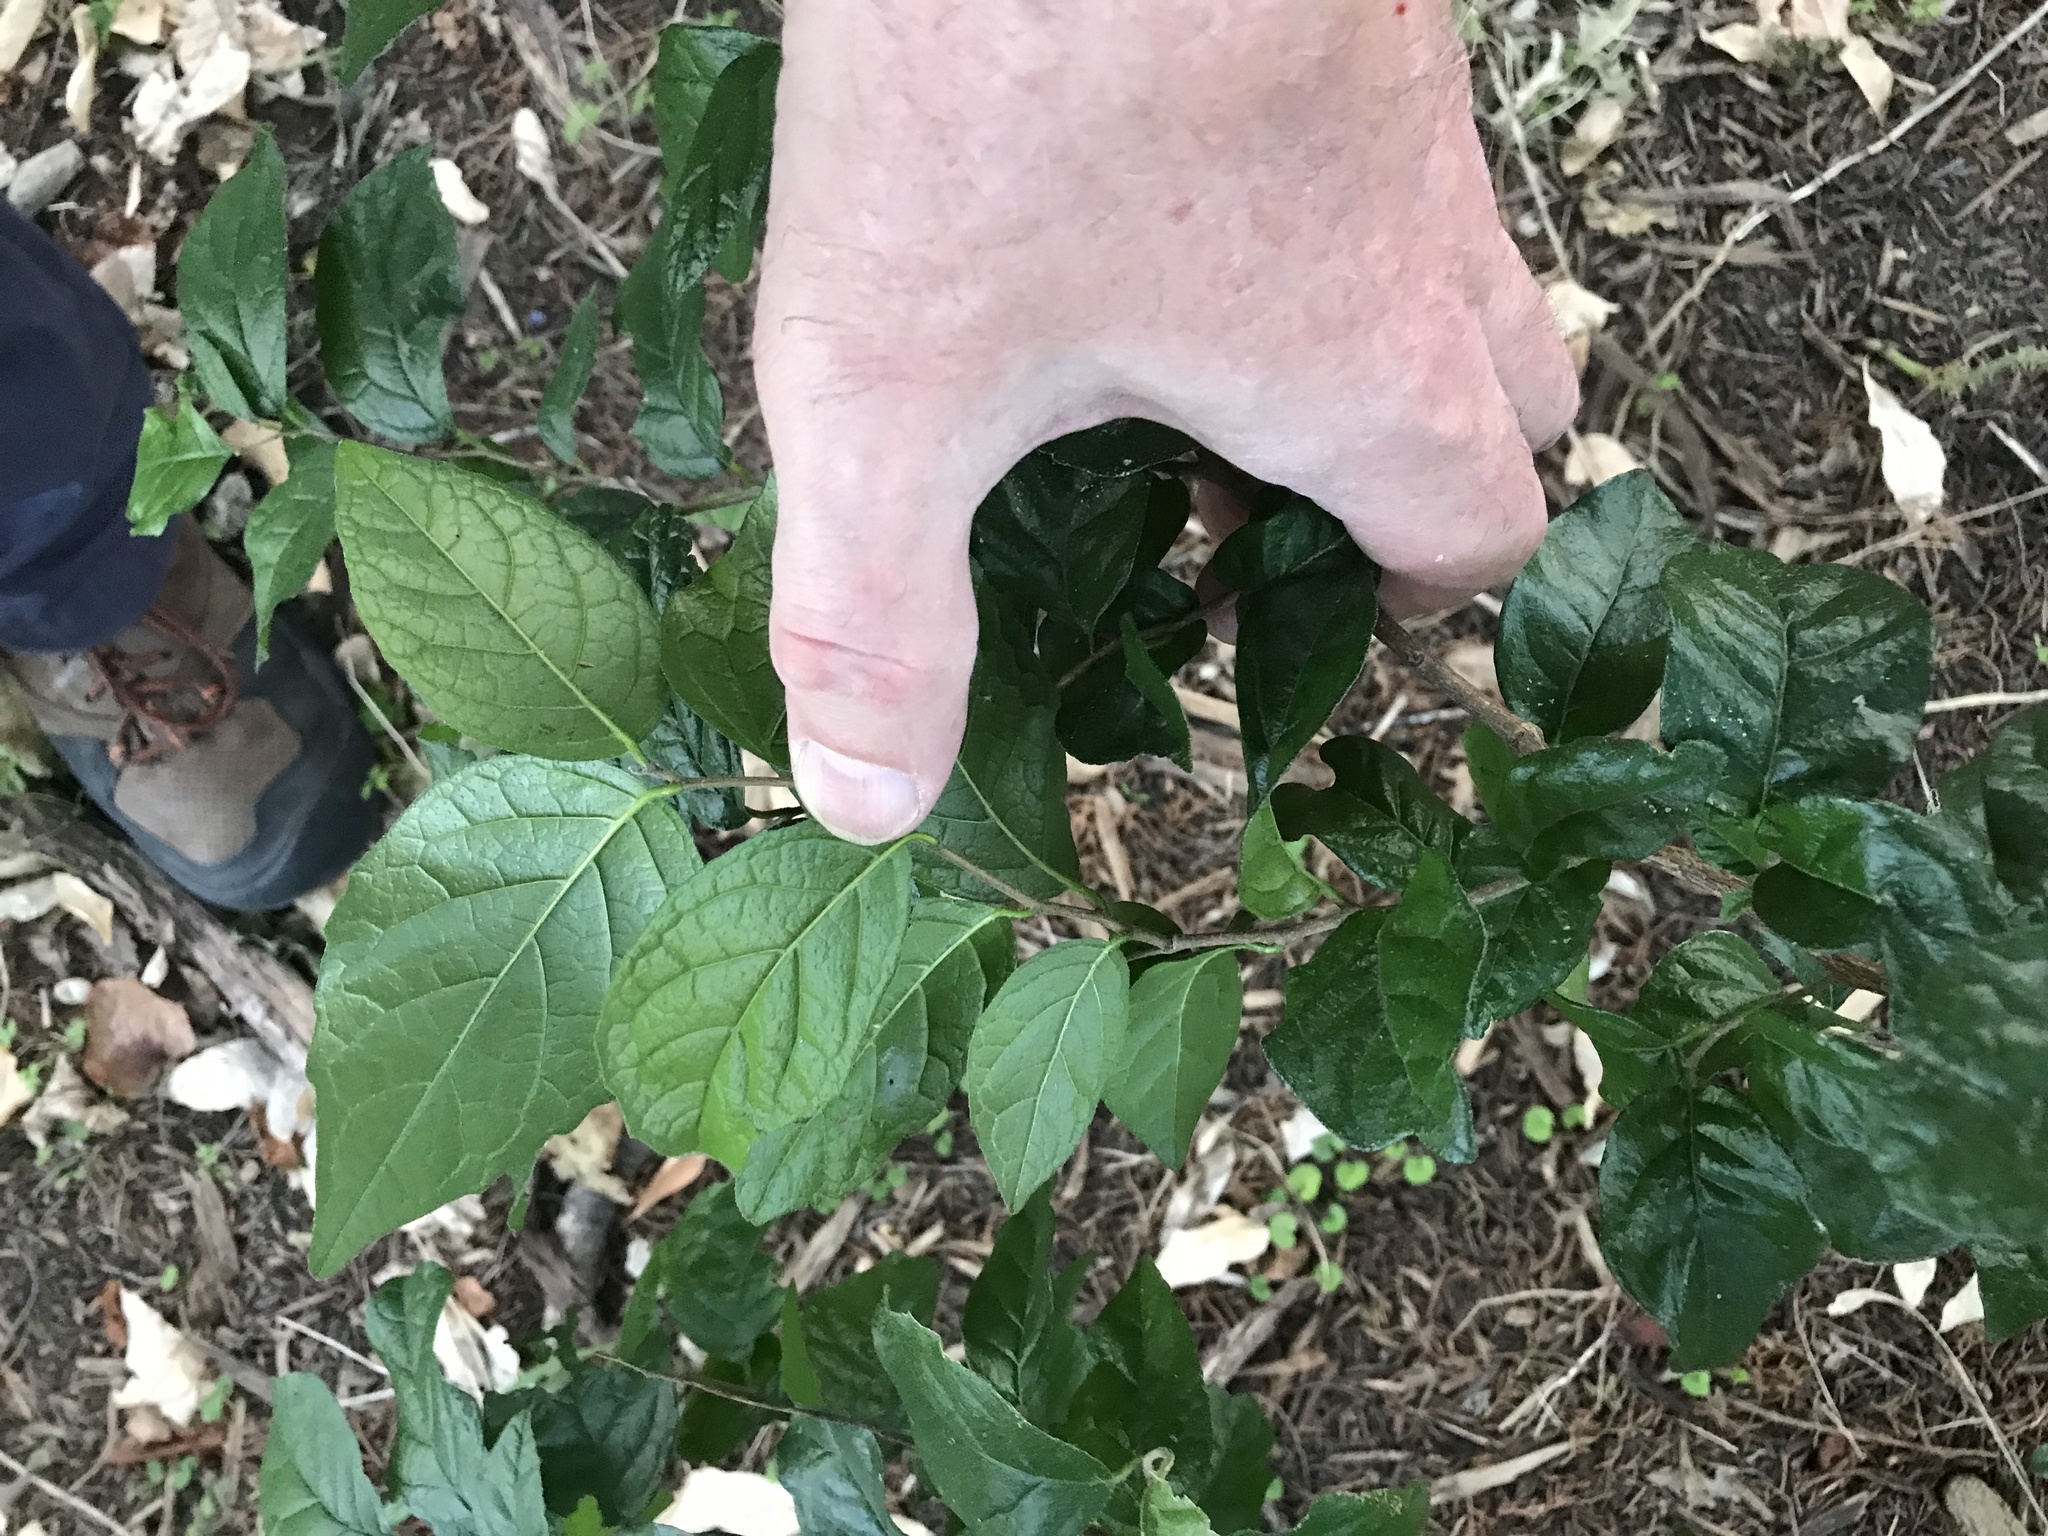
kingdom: Plantae
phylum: Tracheophyta
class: Magnoliopsida
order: Boraginales
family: Ehretiaceae
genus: Ehretia
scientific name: Ehretia anacua
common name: Sugarberry
